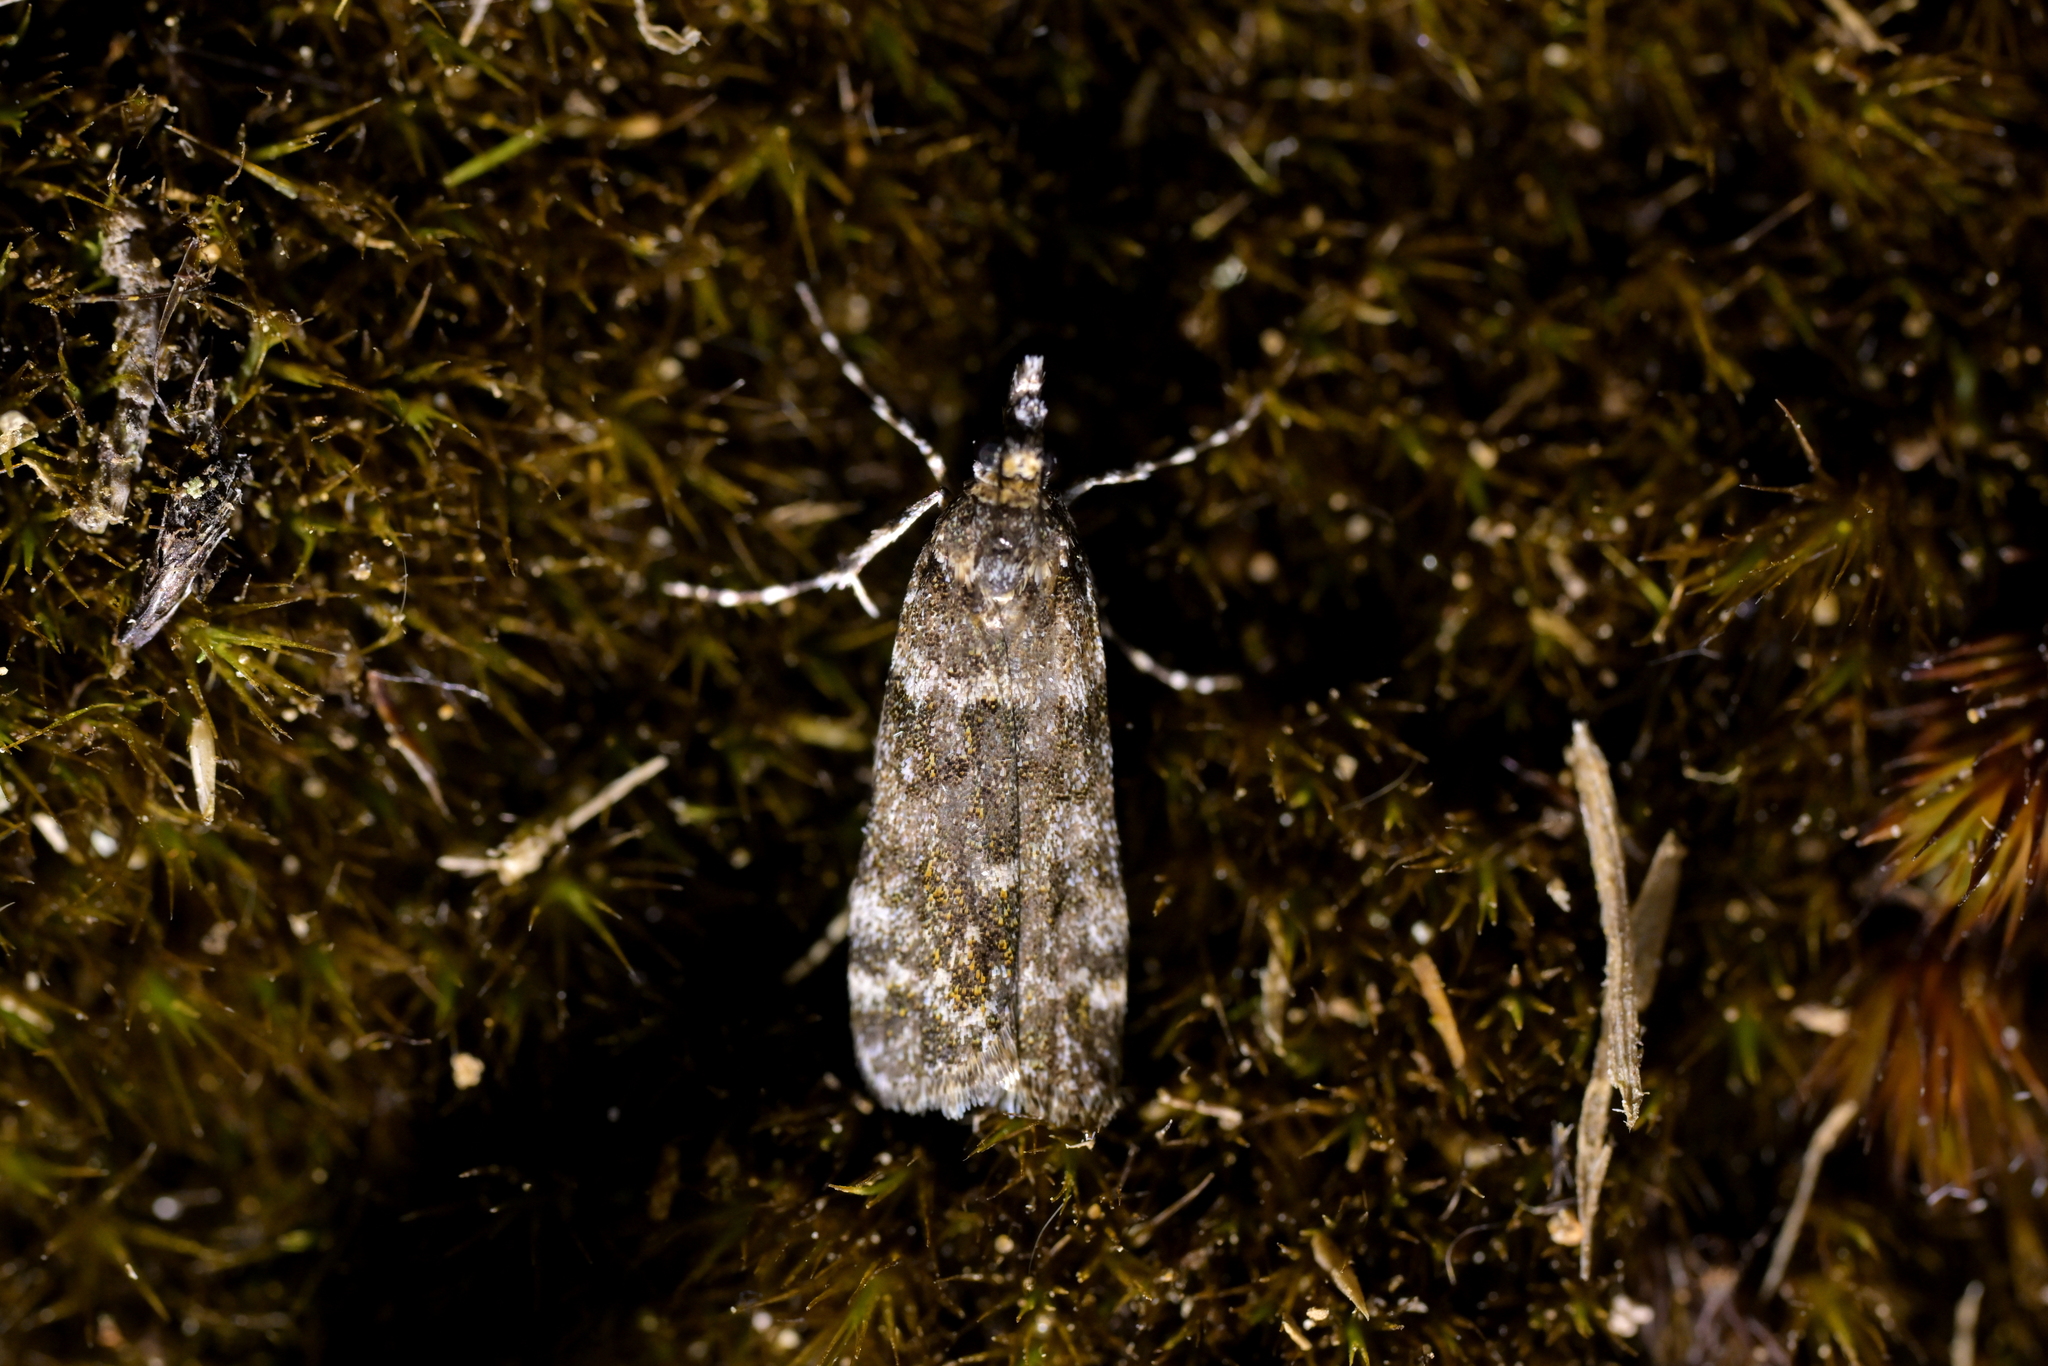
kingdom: Animalia
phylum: Arthropoda
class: Insecta
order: Lepidoptera
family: Crambidae
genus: Eudonia
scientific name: Eudonia
